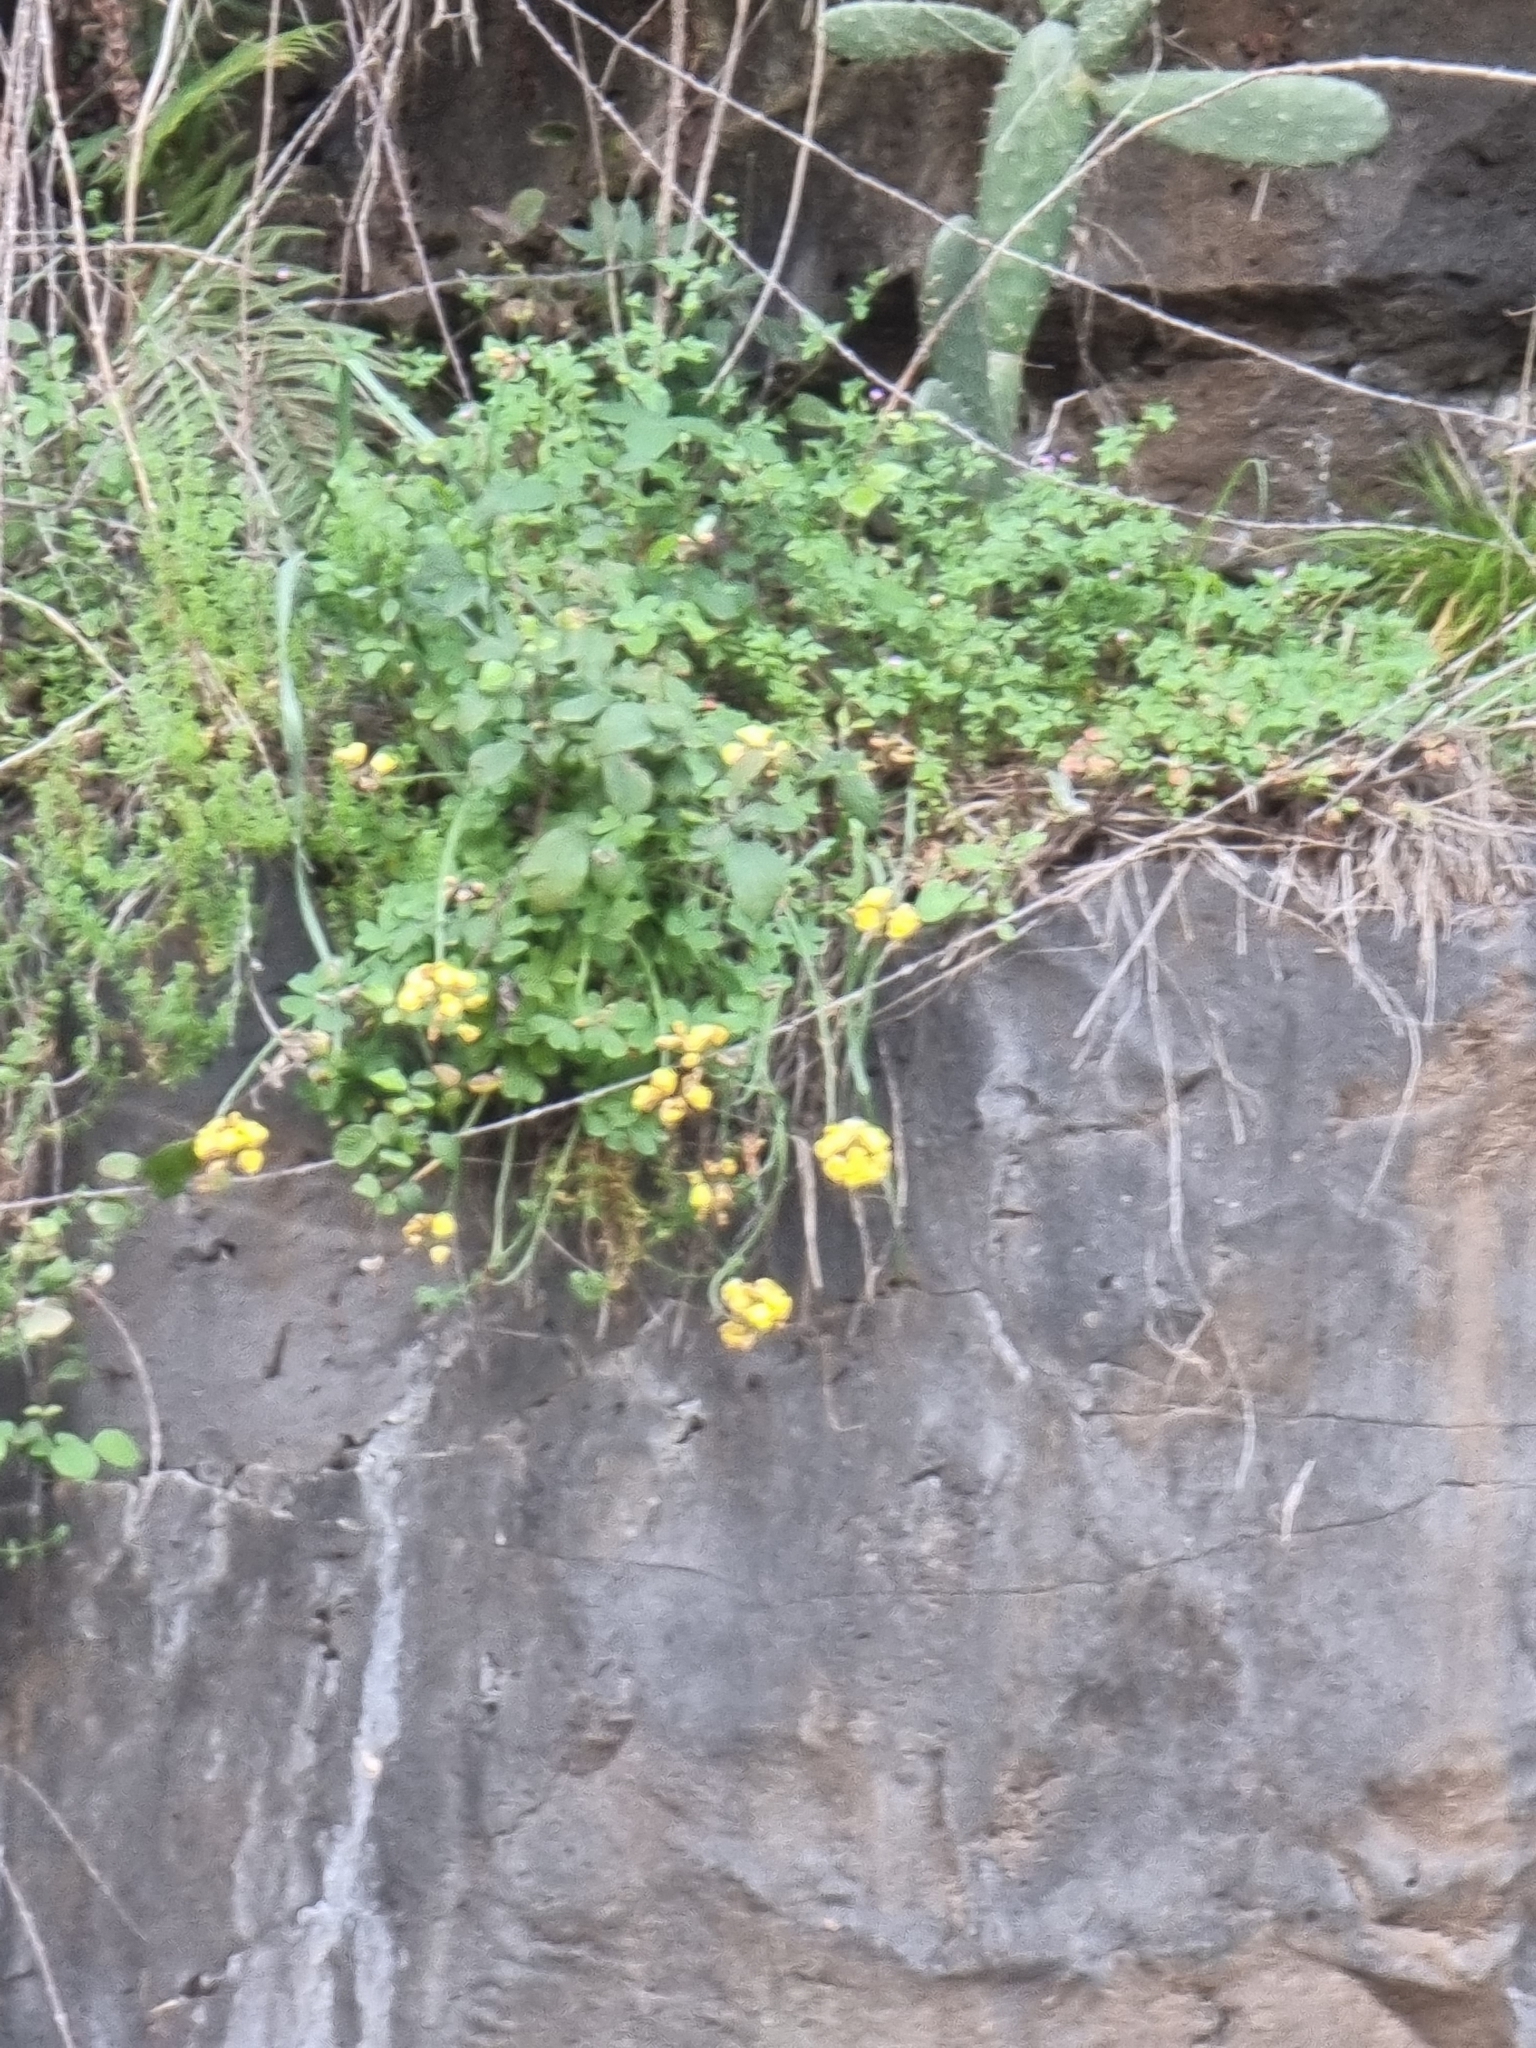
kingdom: Plantae
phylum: Tracheophyta
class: Magnoliopsida
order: Oxalidales
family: Oxalidaceae
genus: Oxalis
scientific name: Oxalis pes-caprae
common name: Bermuda-buttercup
